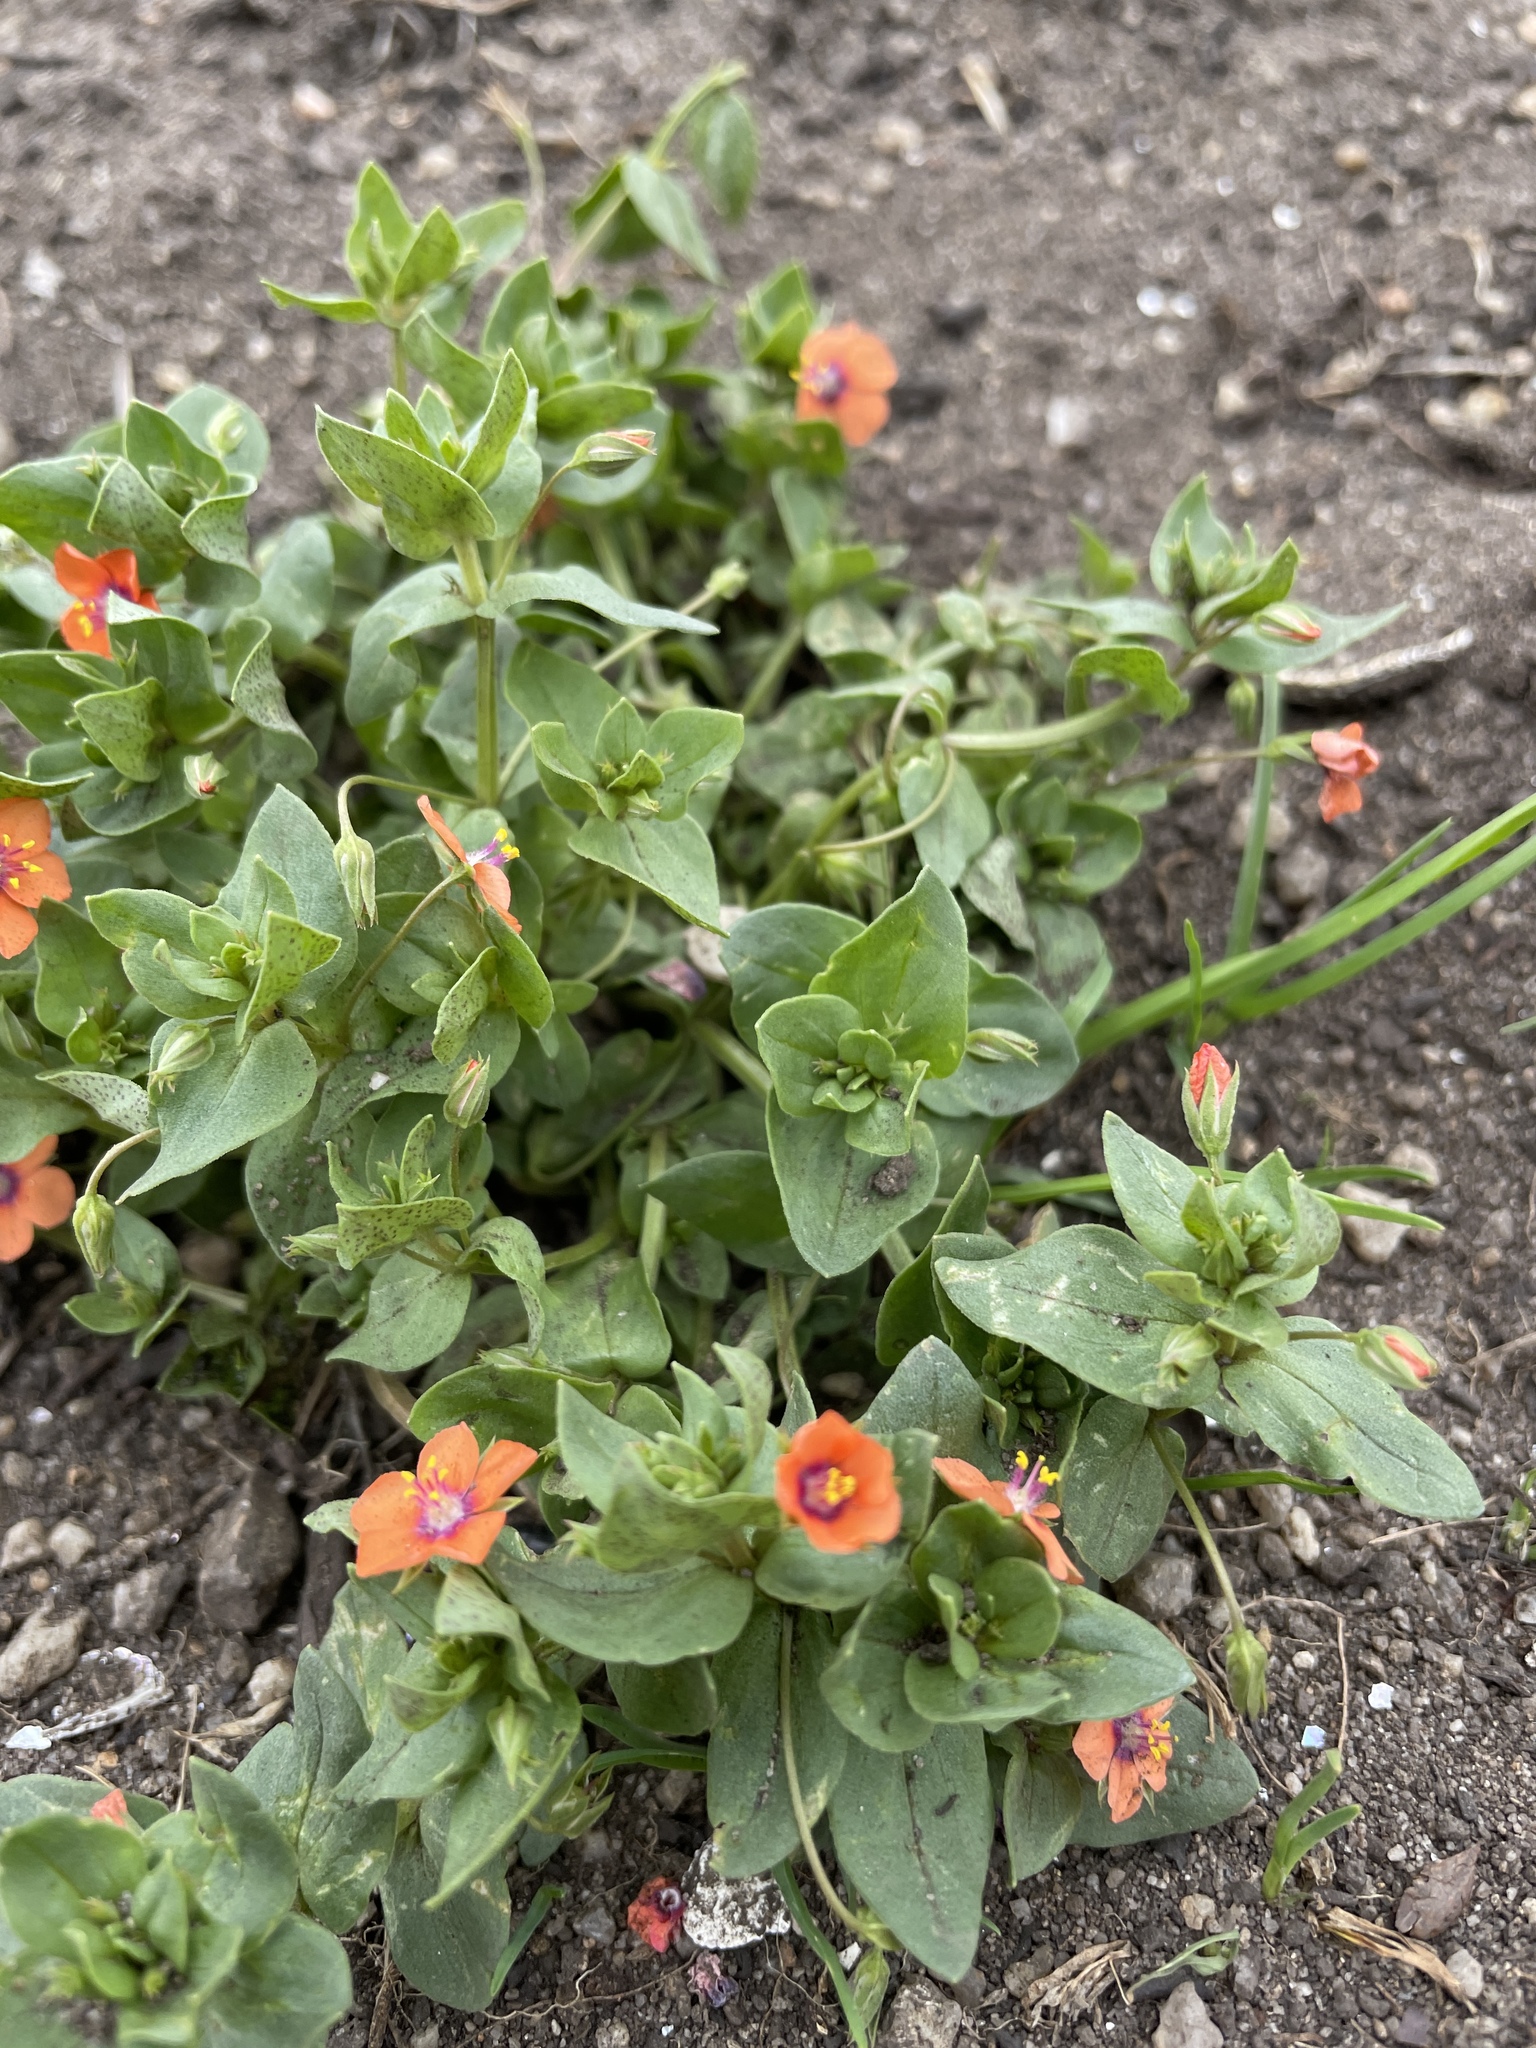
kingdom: Plantae
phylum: Tracheophyta
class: Magnoliopsida
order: Ericales
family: Primulaceae
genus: Lysimachia
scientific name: Lysimachia arvensis
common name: Scarlet pimpernel
